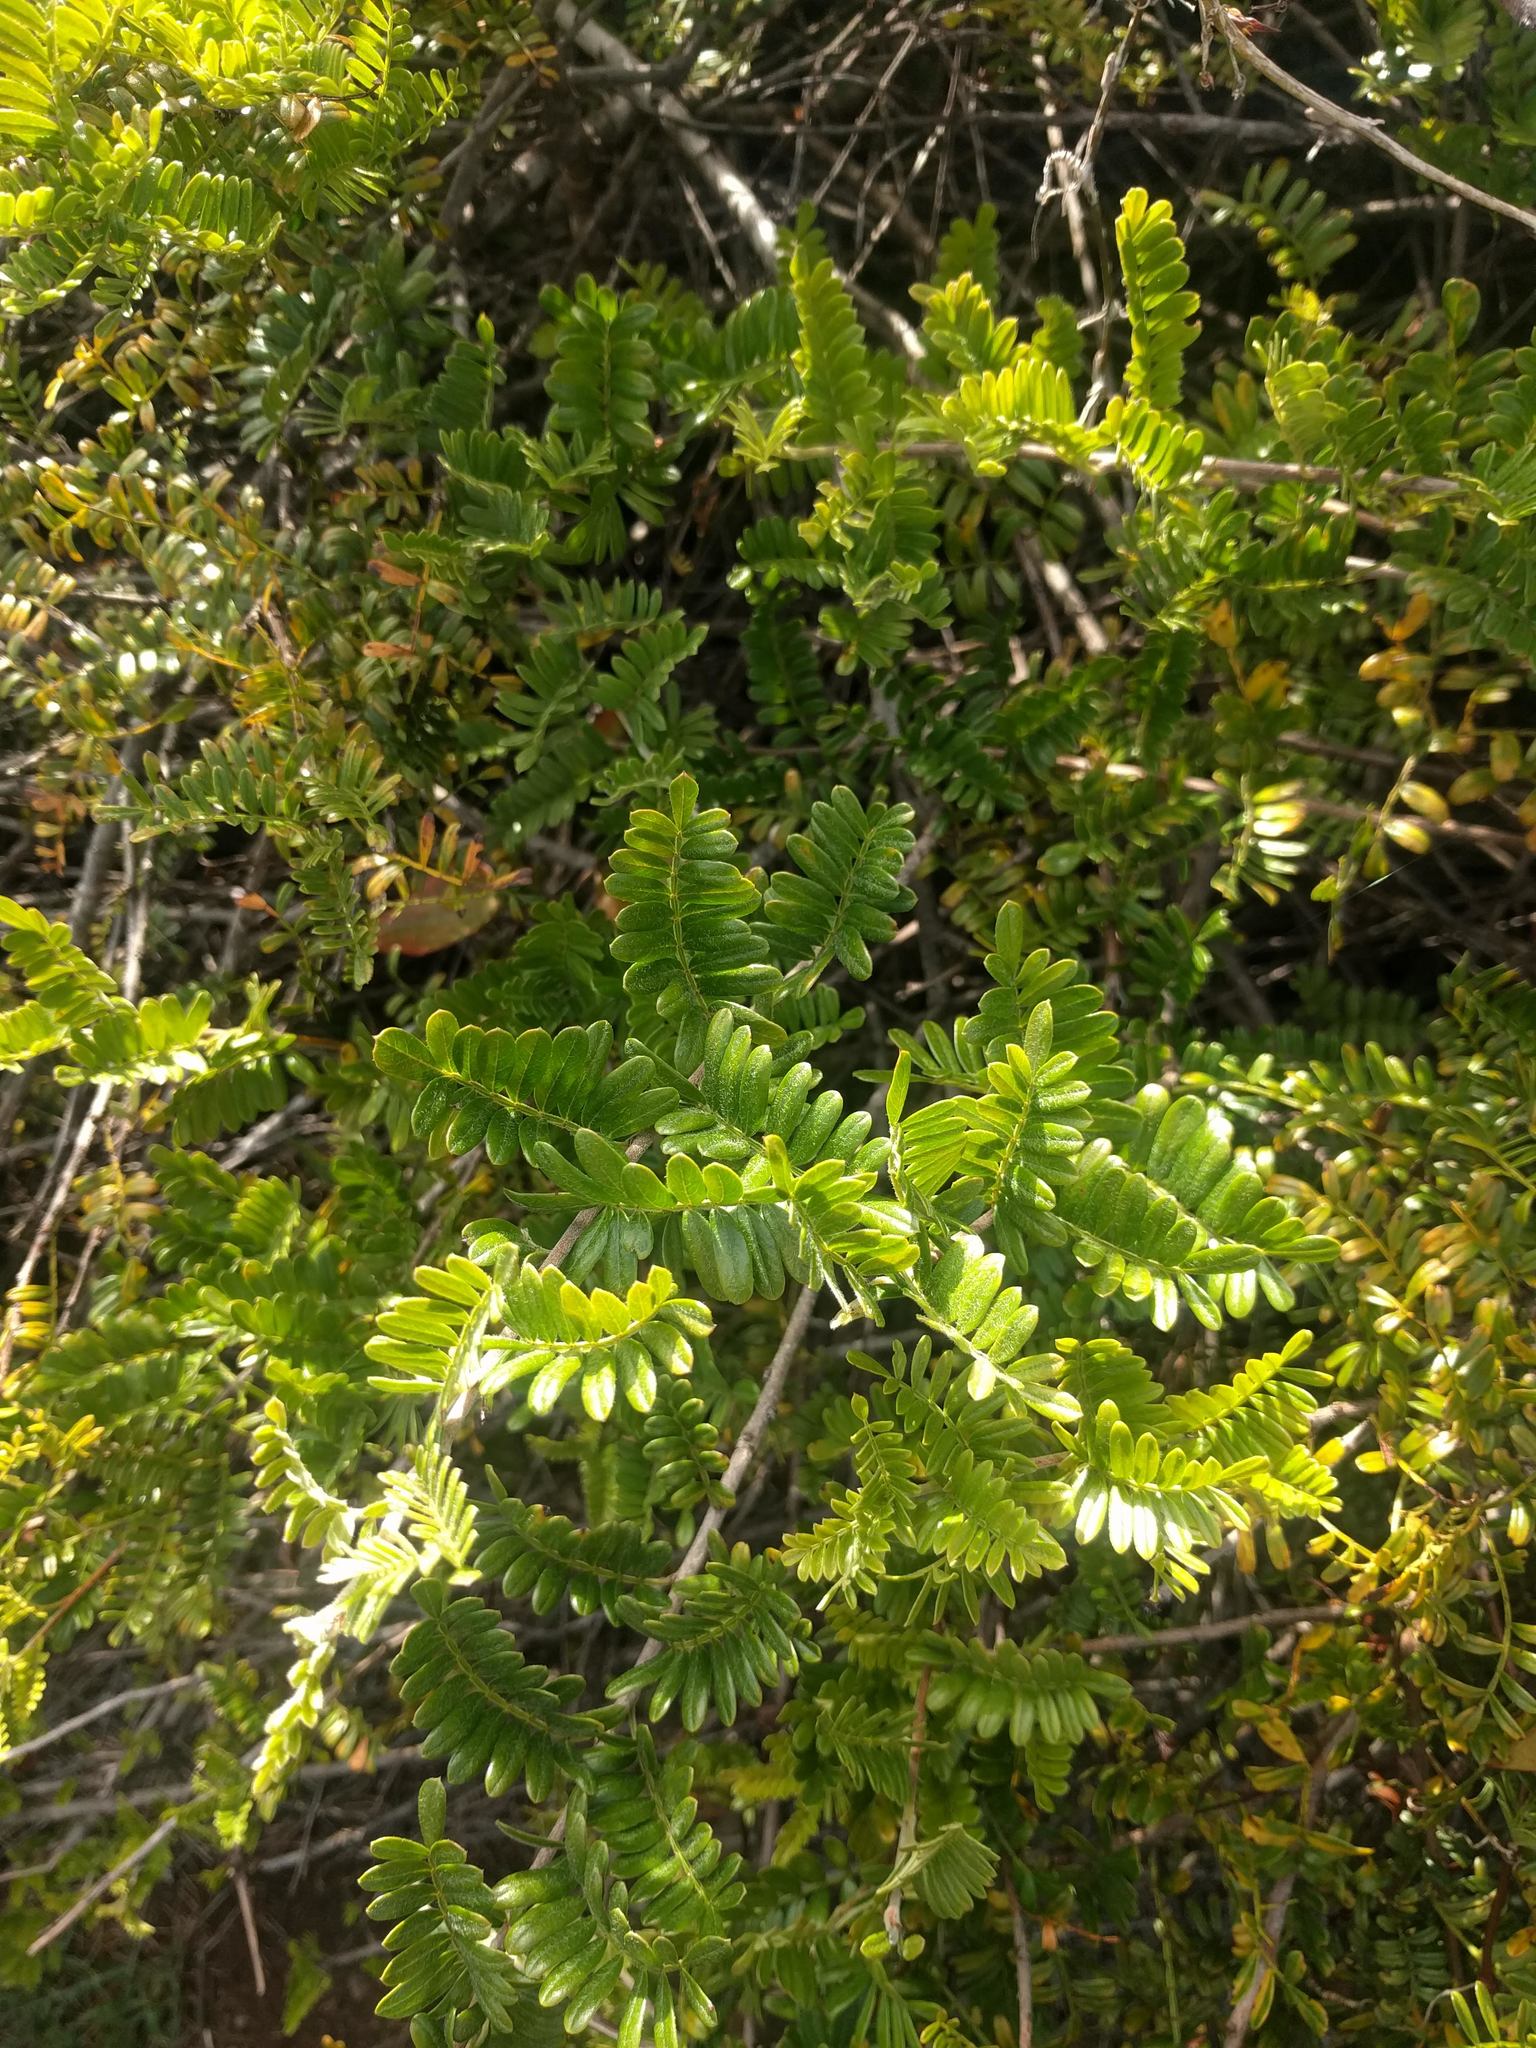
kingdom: Plantae
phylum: Tracheophyta
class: Magnoliopsida
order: Rosales
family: Rosaceae
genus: Osteomeles
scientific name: Osteomeles anthyllidifolia
